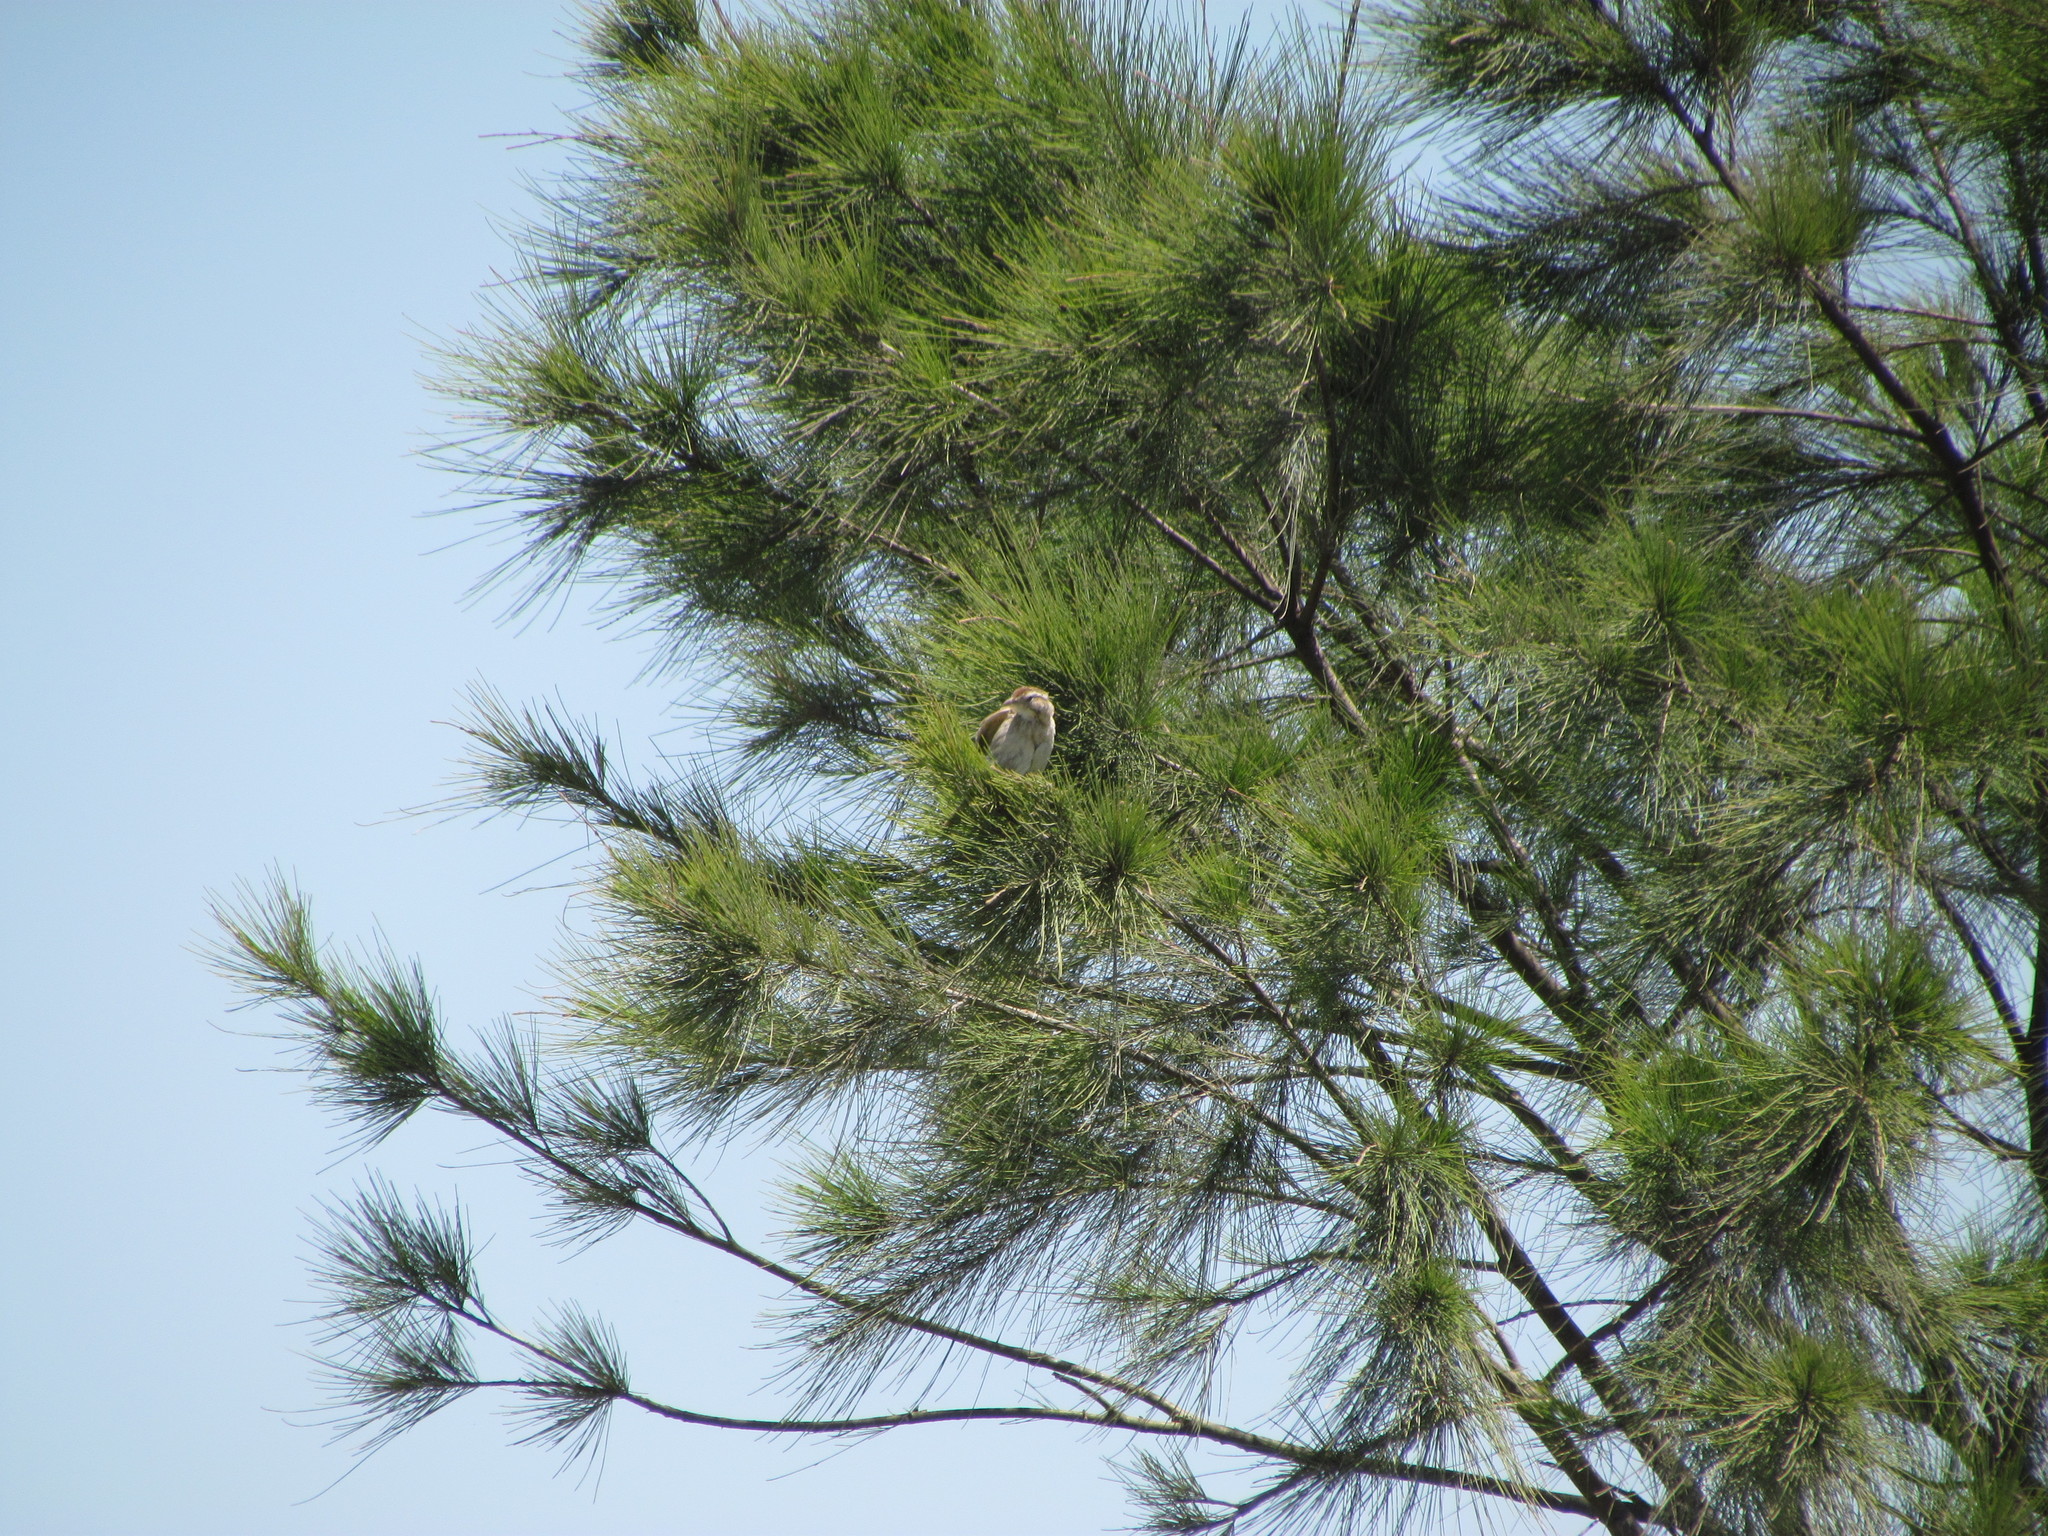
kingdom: Animalia
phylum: Chordata
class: Aves
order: Passeriformes
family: Furnariidae
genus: Anumbius
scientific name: Anumbius annumbi
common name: Firewood-gatherer
